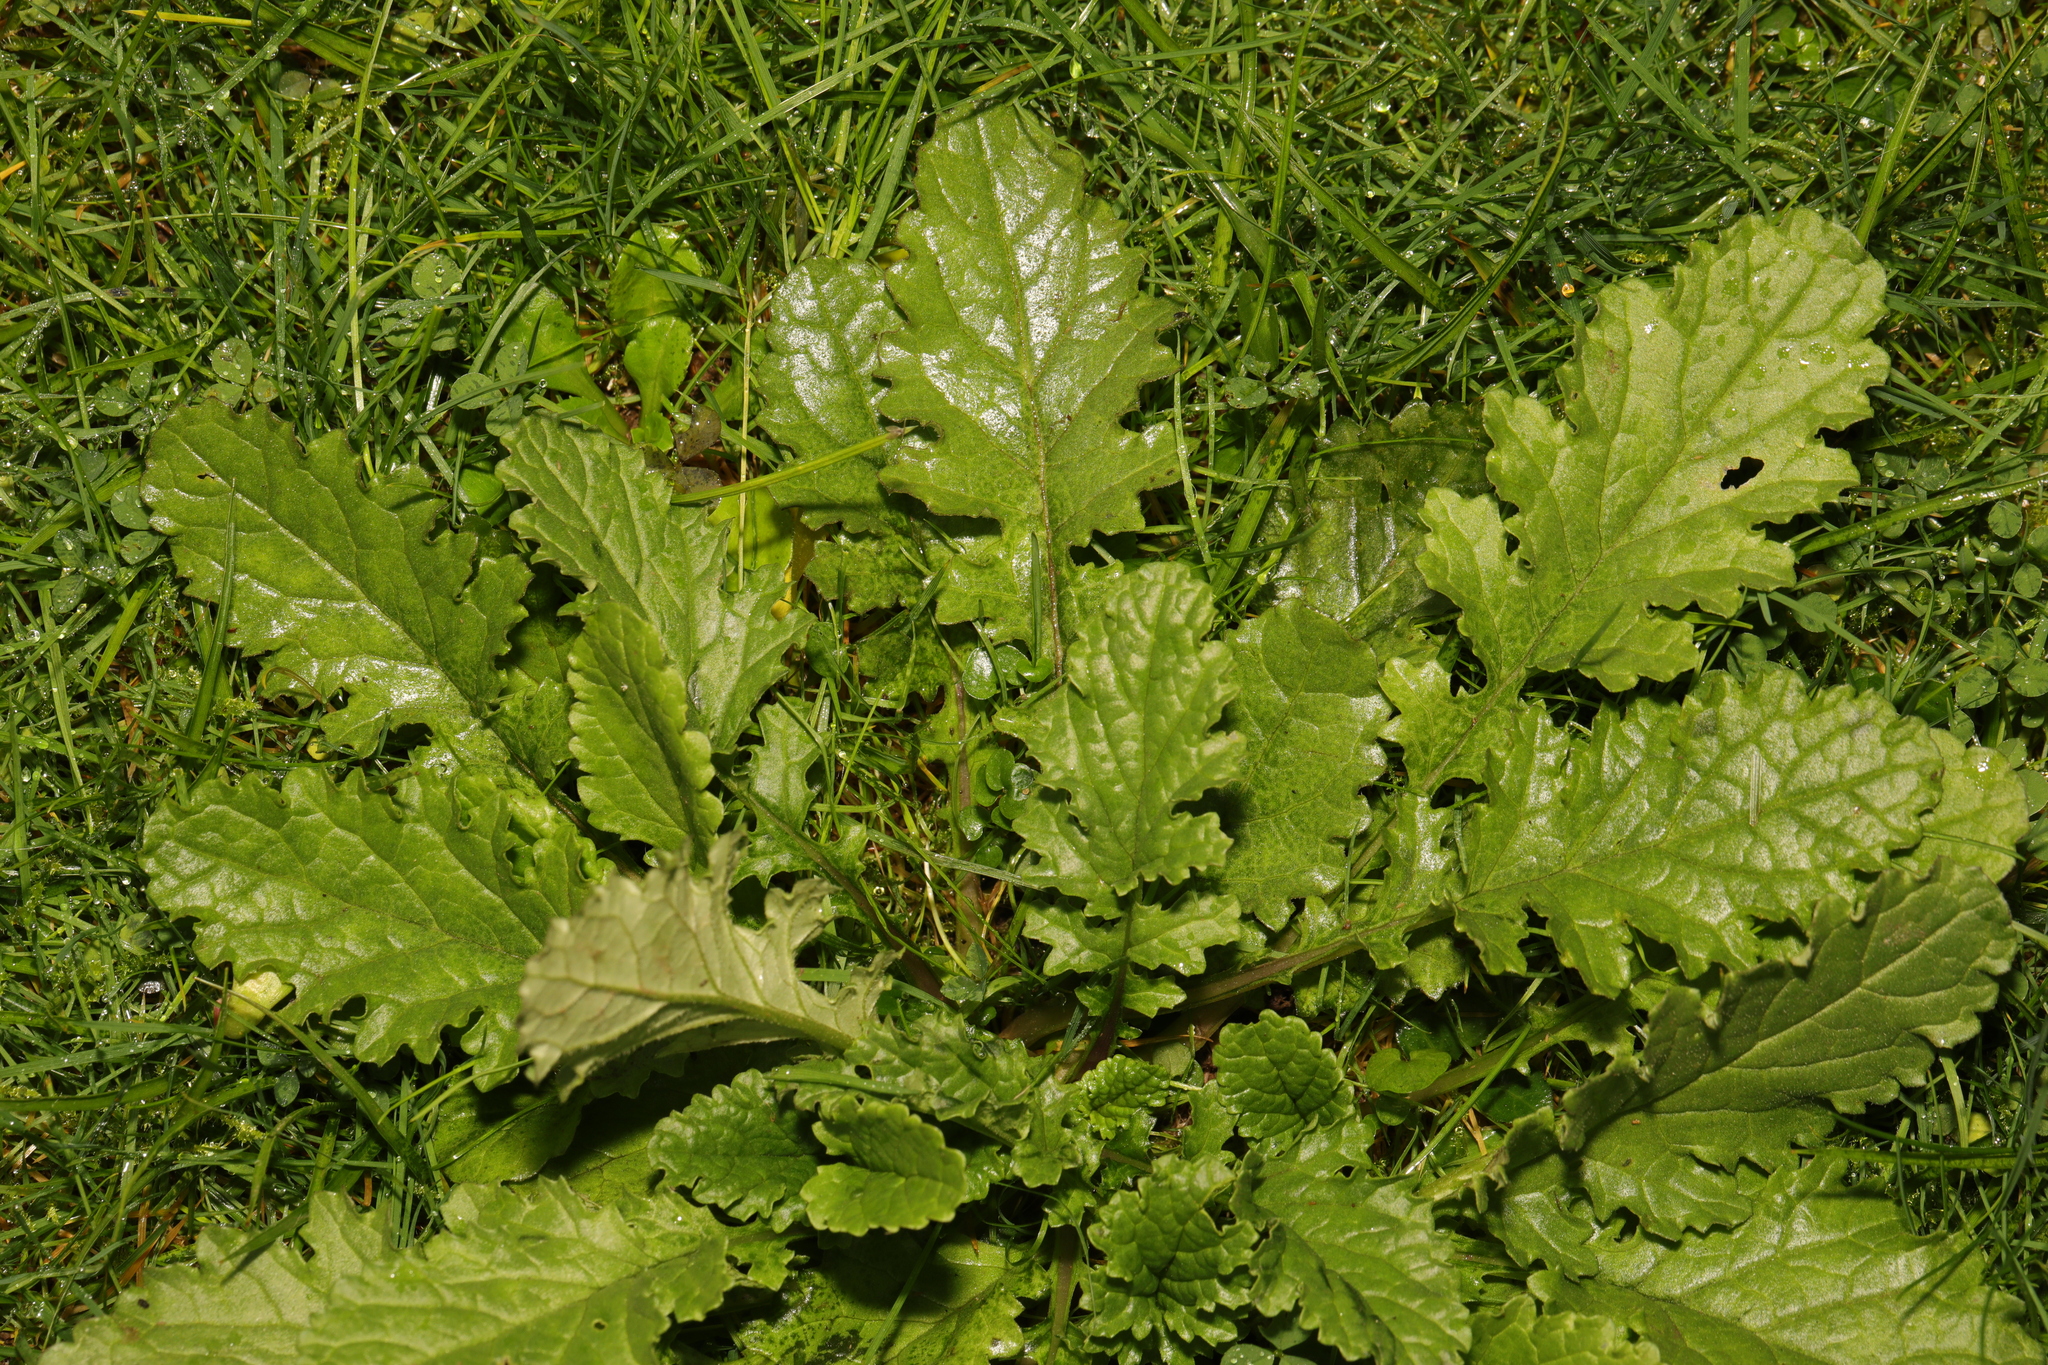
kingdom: Plantae
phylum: Tracheophyta
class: Magnoliopsida
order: Asterales
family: Asteraceae
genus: Jacobaea
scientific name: Jacobaea vulgaris
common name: Stinking willie
